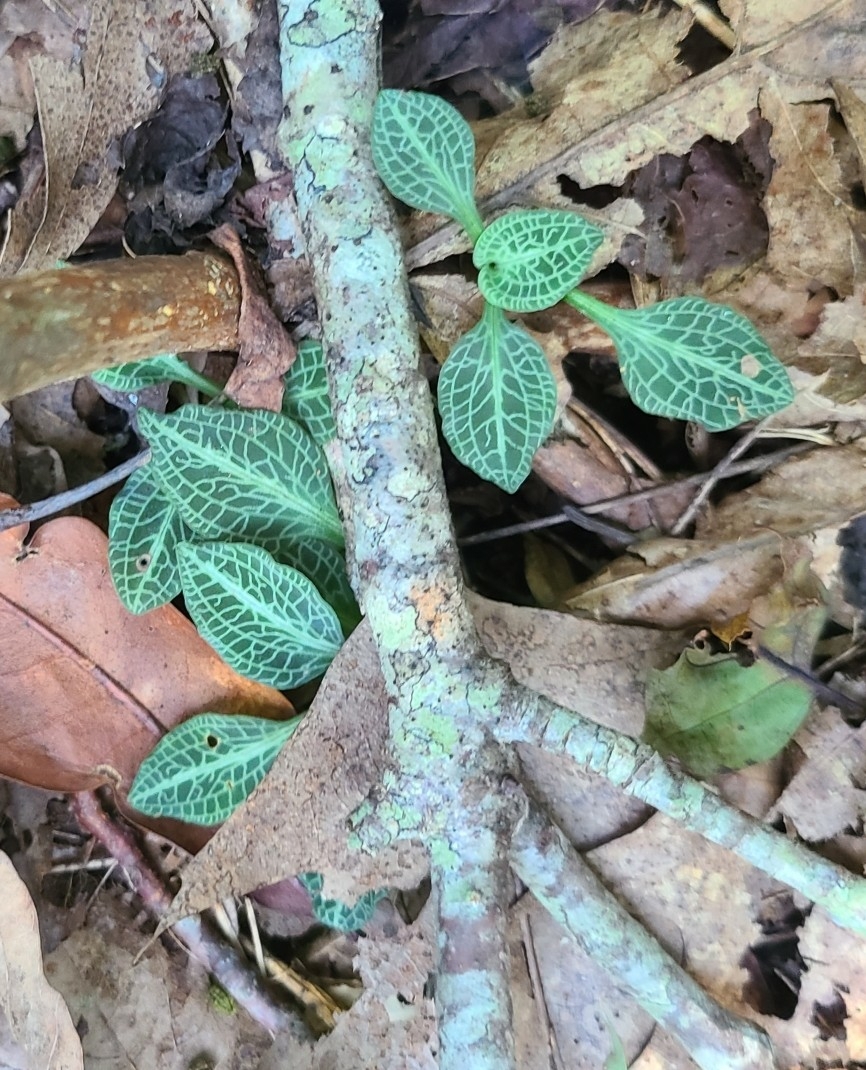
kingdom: Plantae
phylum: Tracheophyta
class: Liliopsida
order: Asparagales
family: Orchidaceae
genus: Goodyera
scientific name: Goodyera pubescens
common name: Downy rattlesnake-plantain
